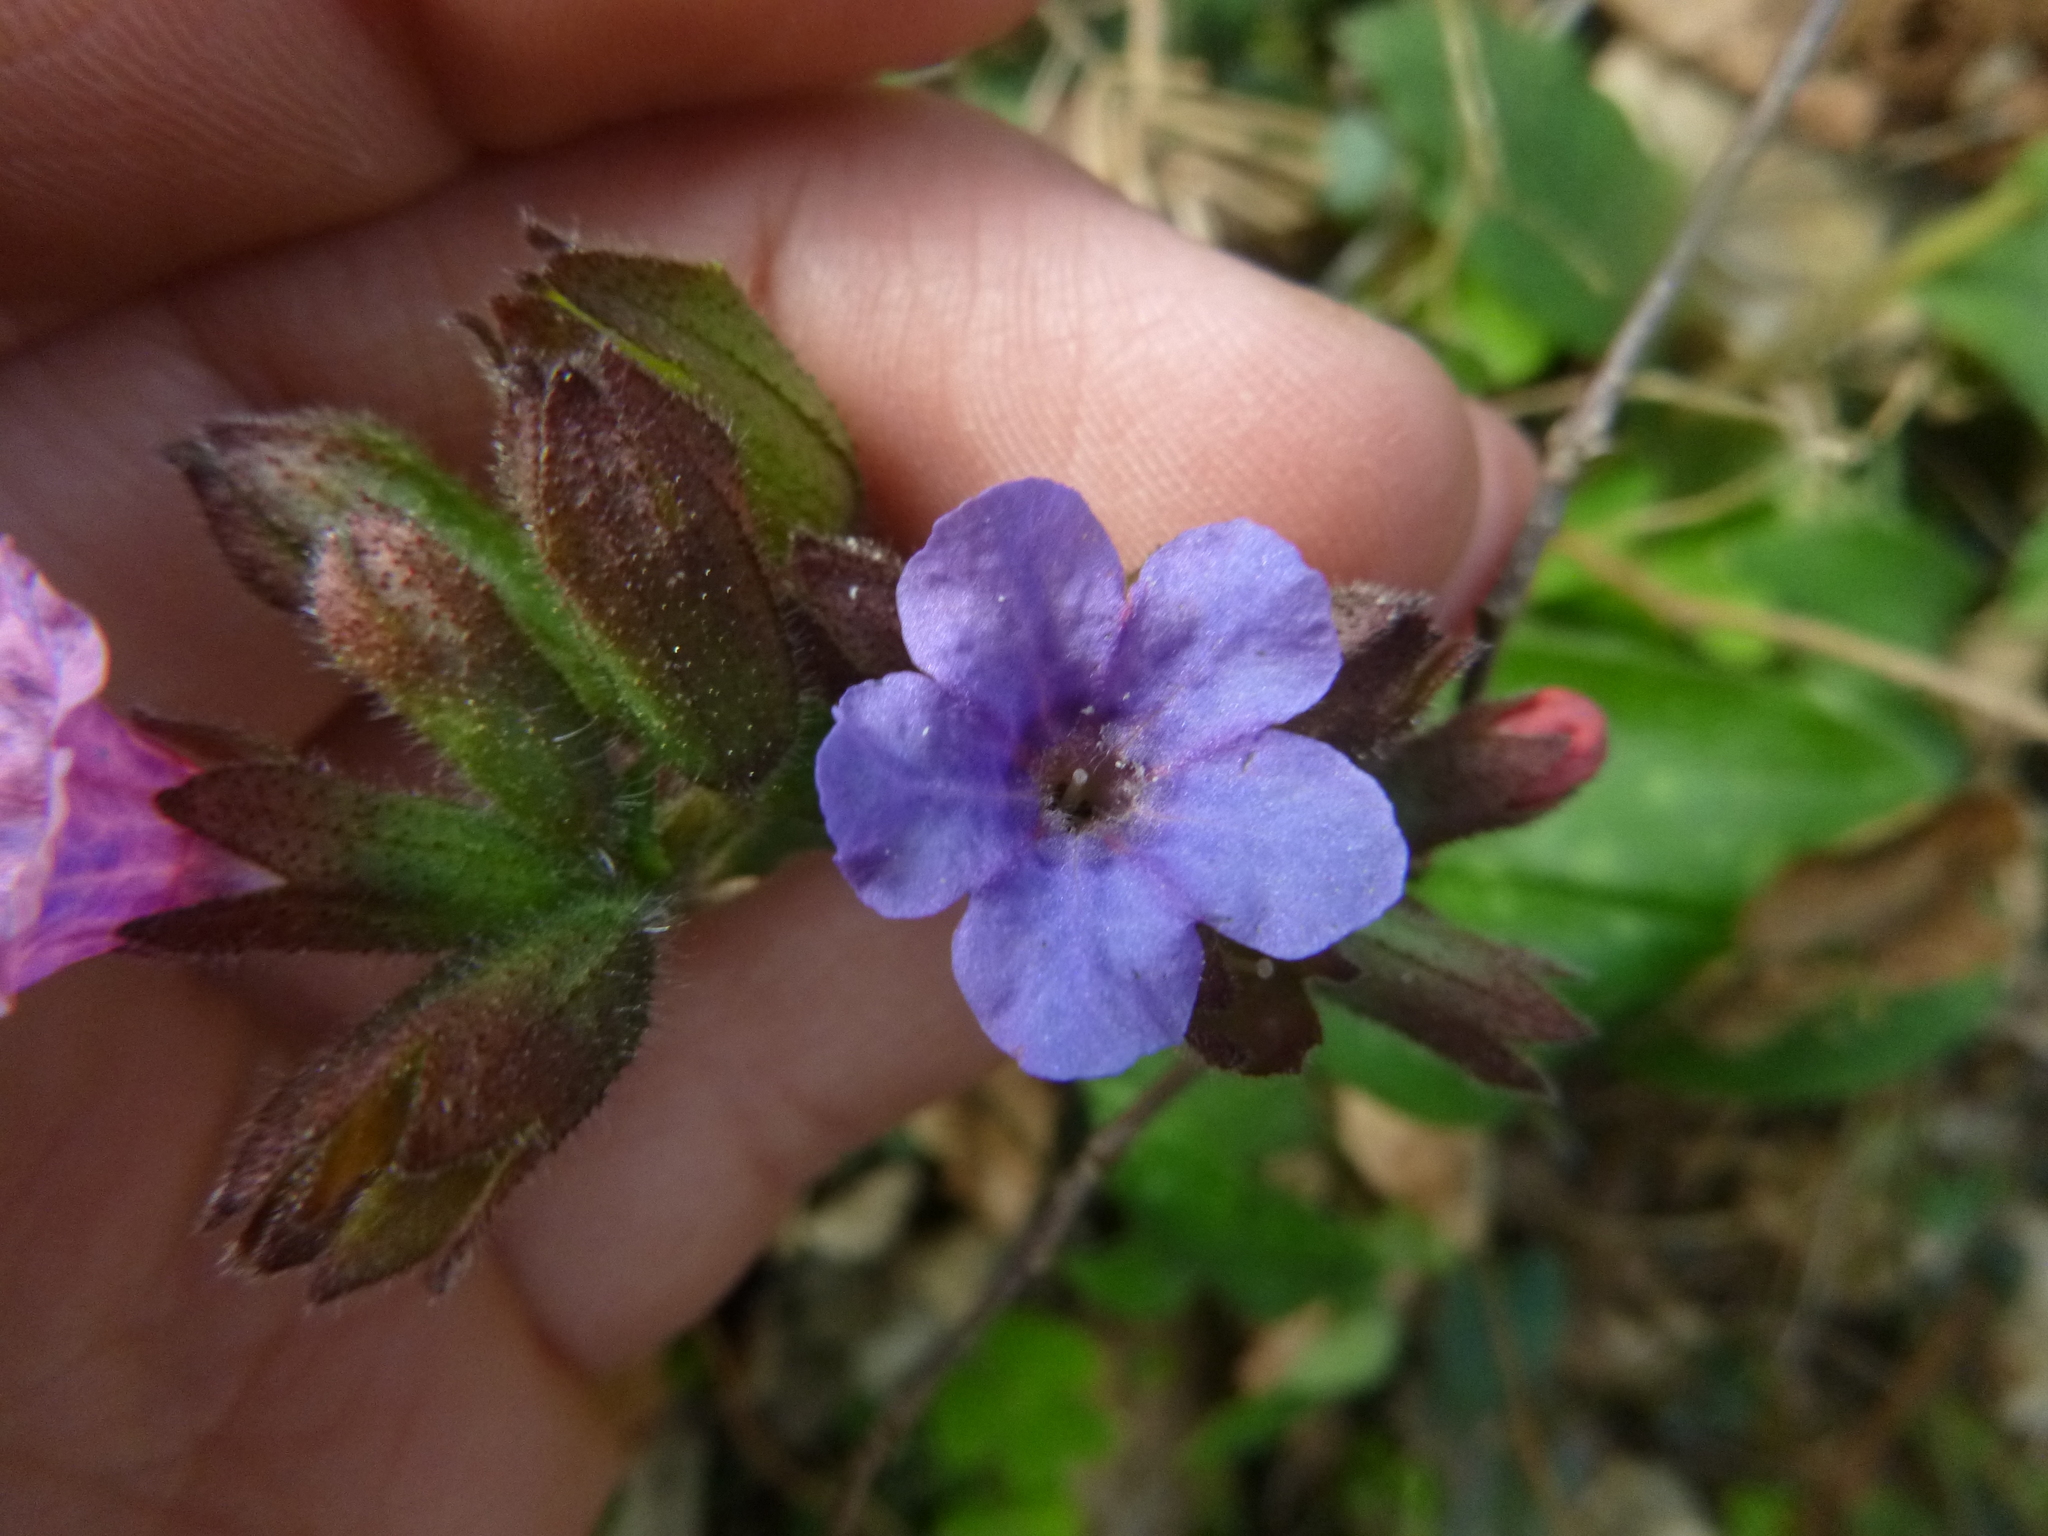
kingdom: Plantae
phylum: Tracheophyta
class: Magnoliopsida
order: Boraginales
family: Boraginaceae
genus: Pulmonaria
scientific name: Pulmonaria officinalis
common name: Lungwort
